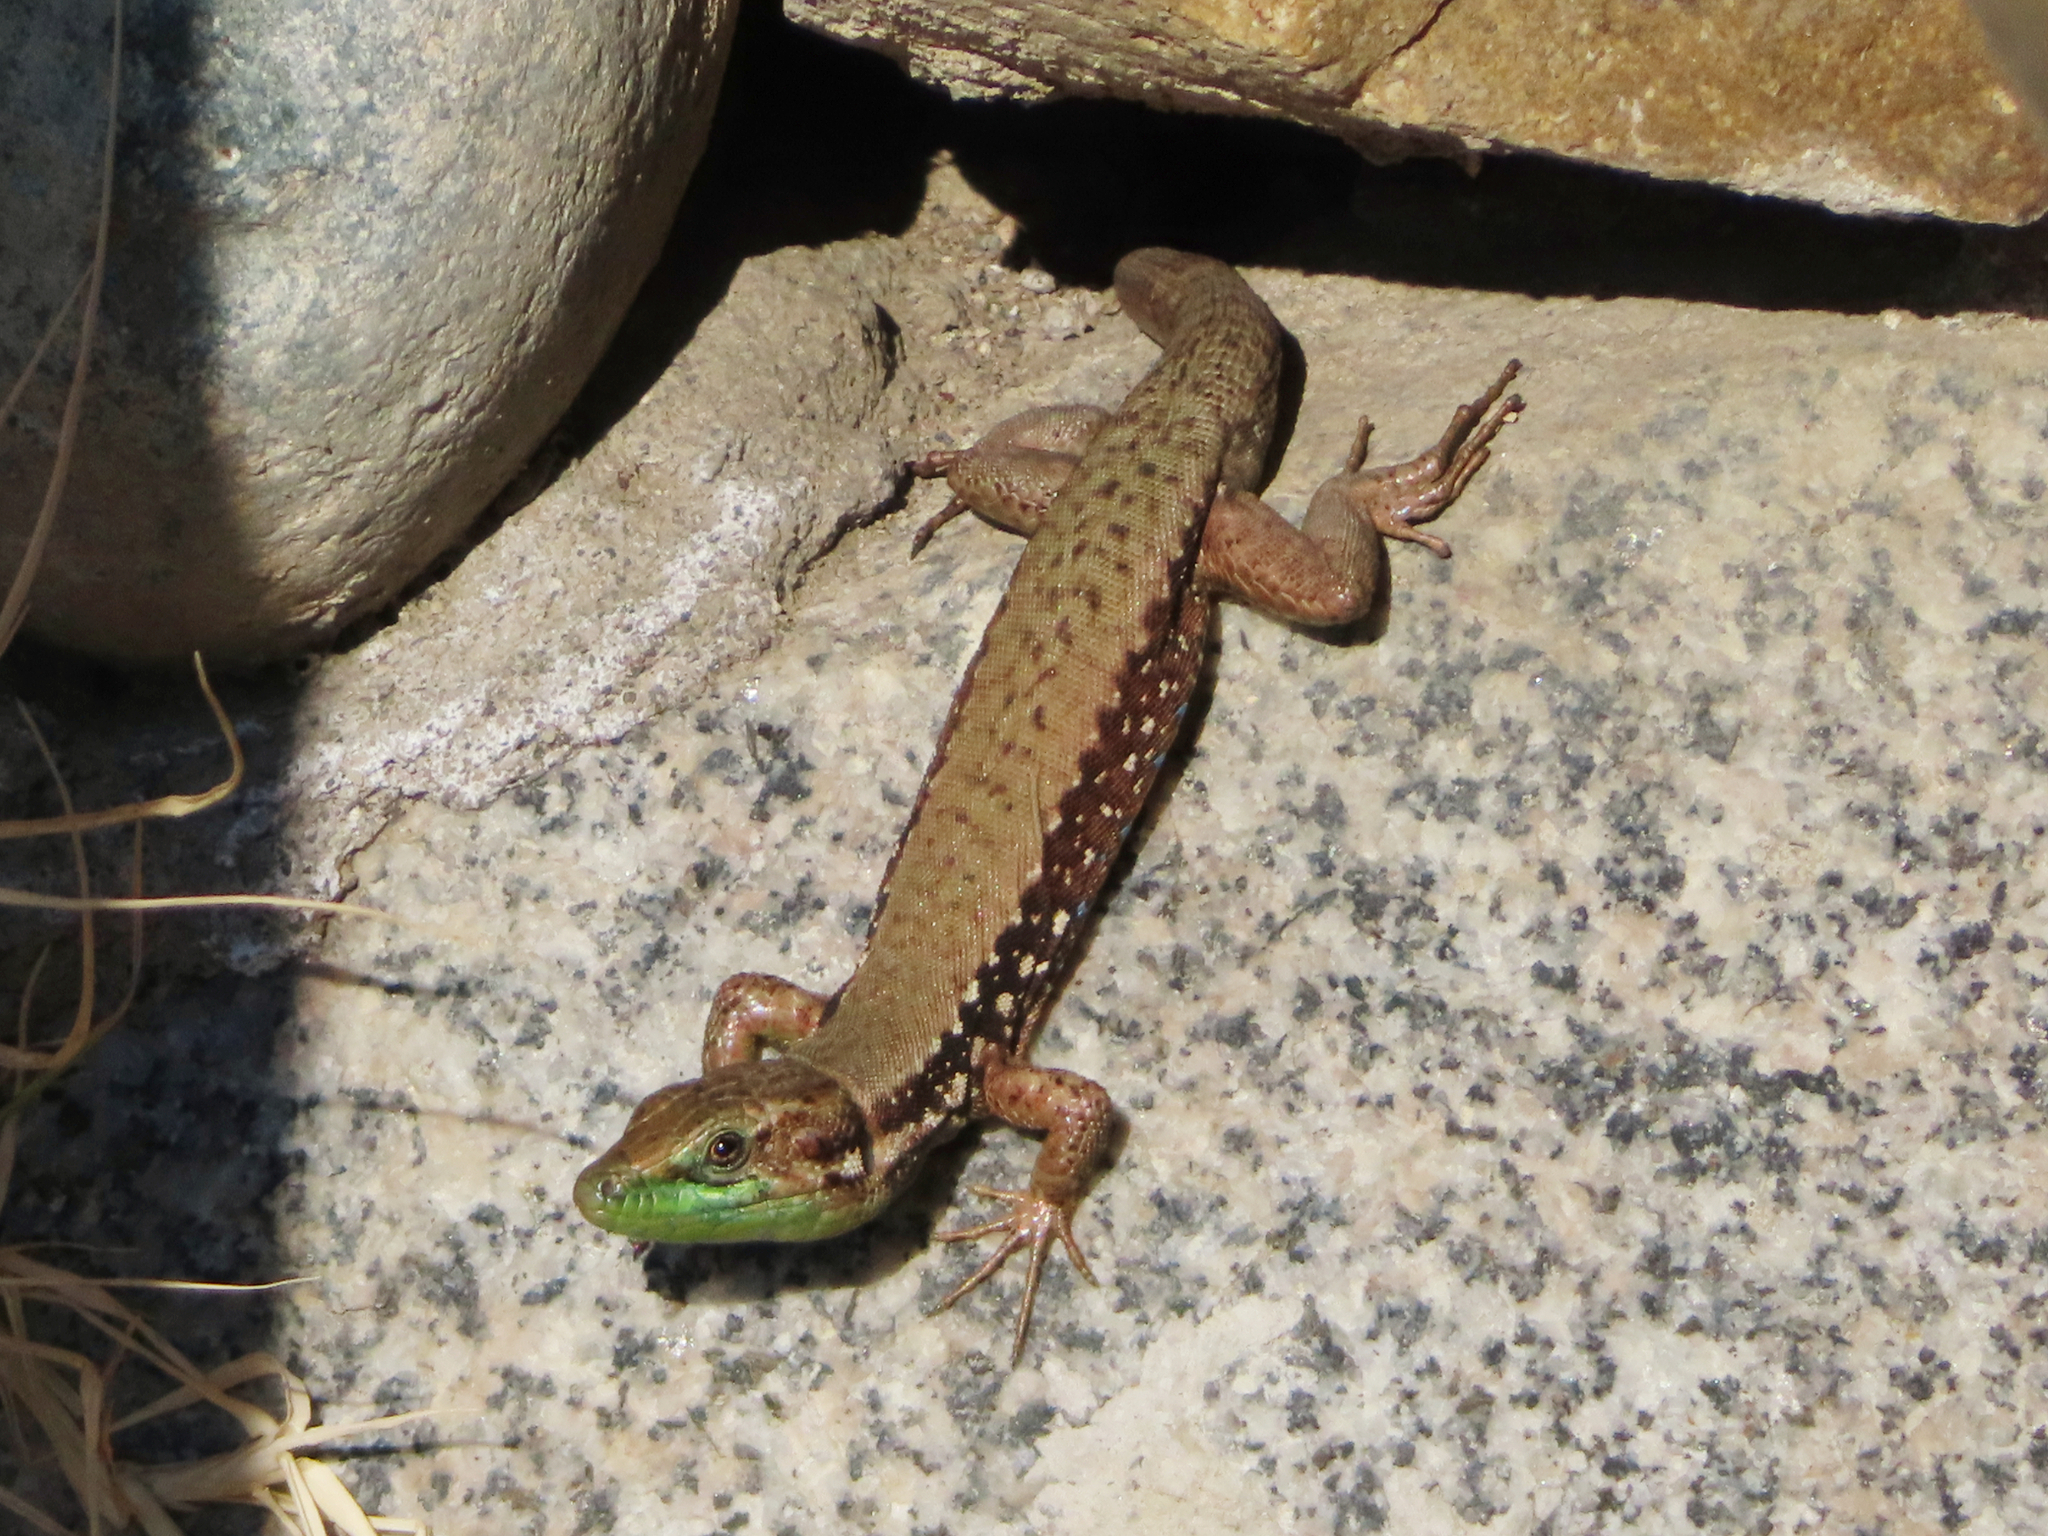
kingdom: Animalia
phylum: Chordata
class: Squamata
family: Lacertidae
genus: Phoenicolacerta
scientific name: Phoenicolacerta laevis
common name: Lebanon lizard
